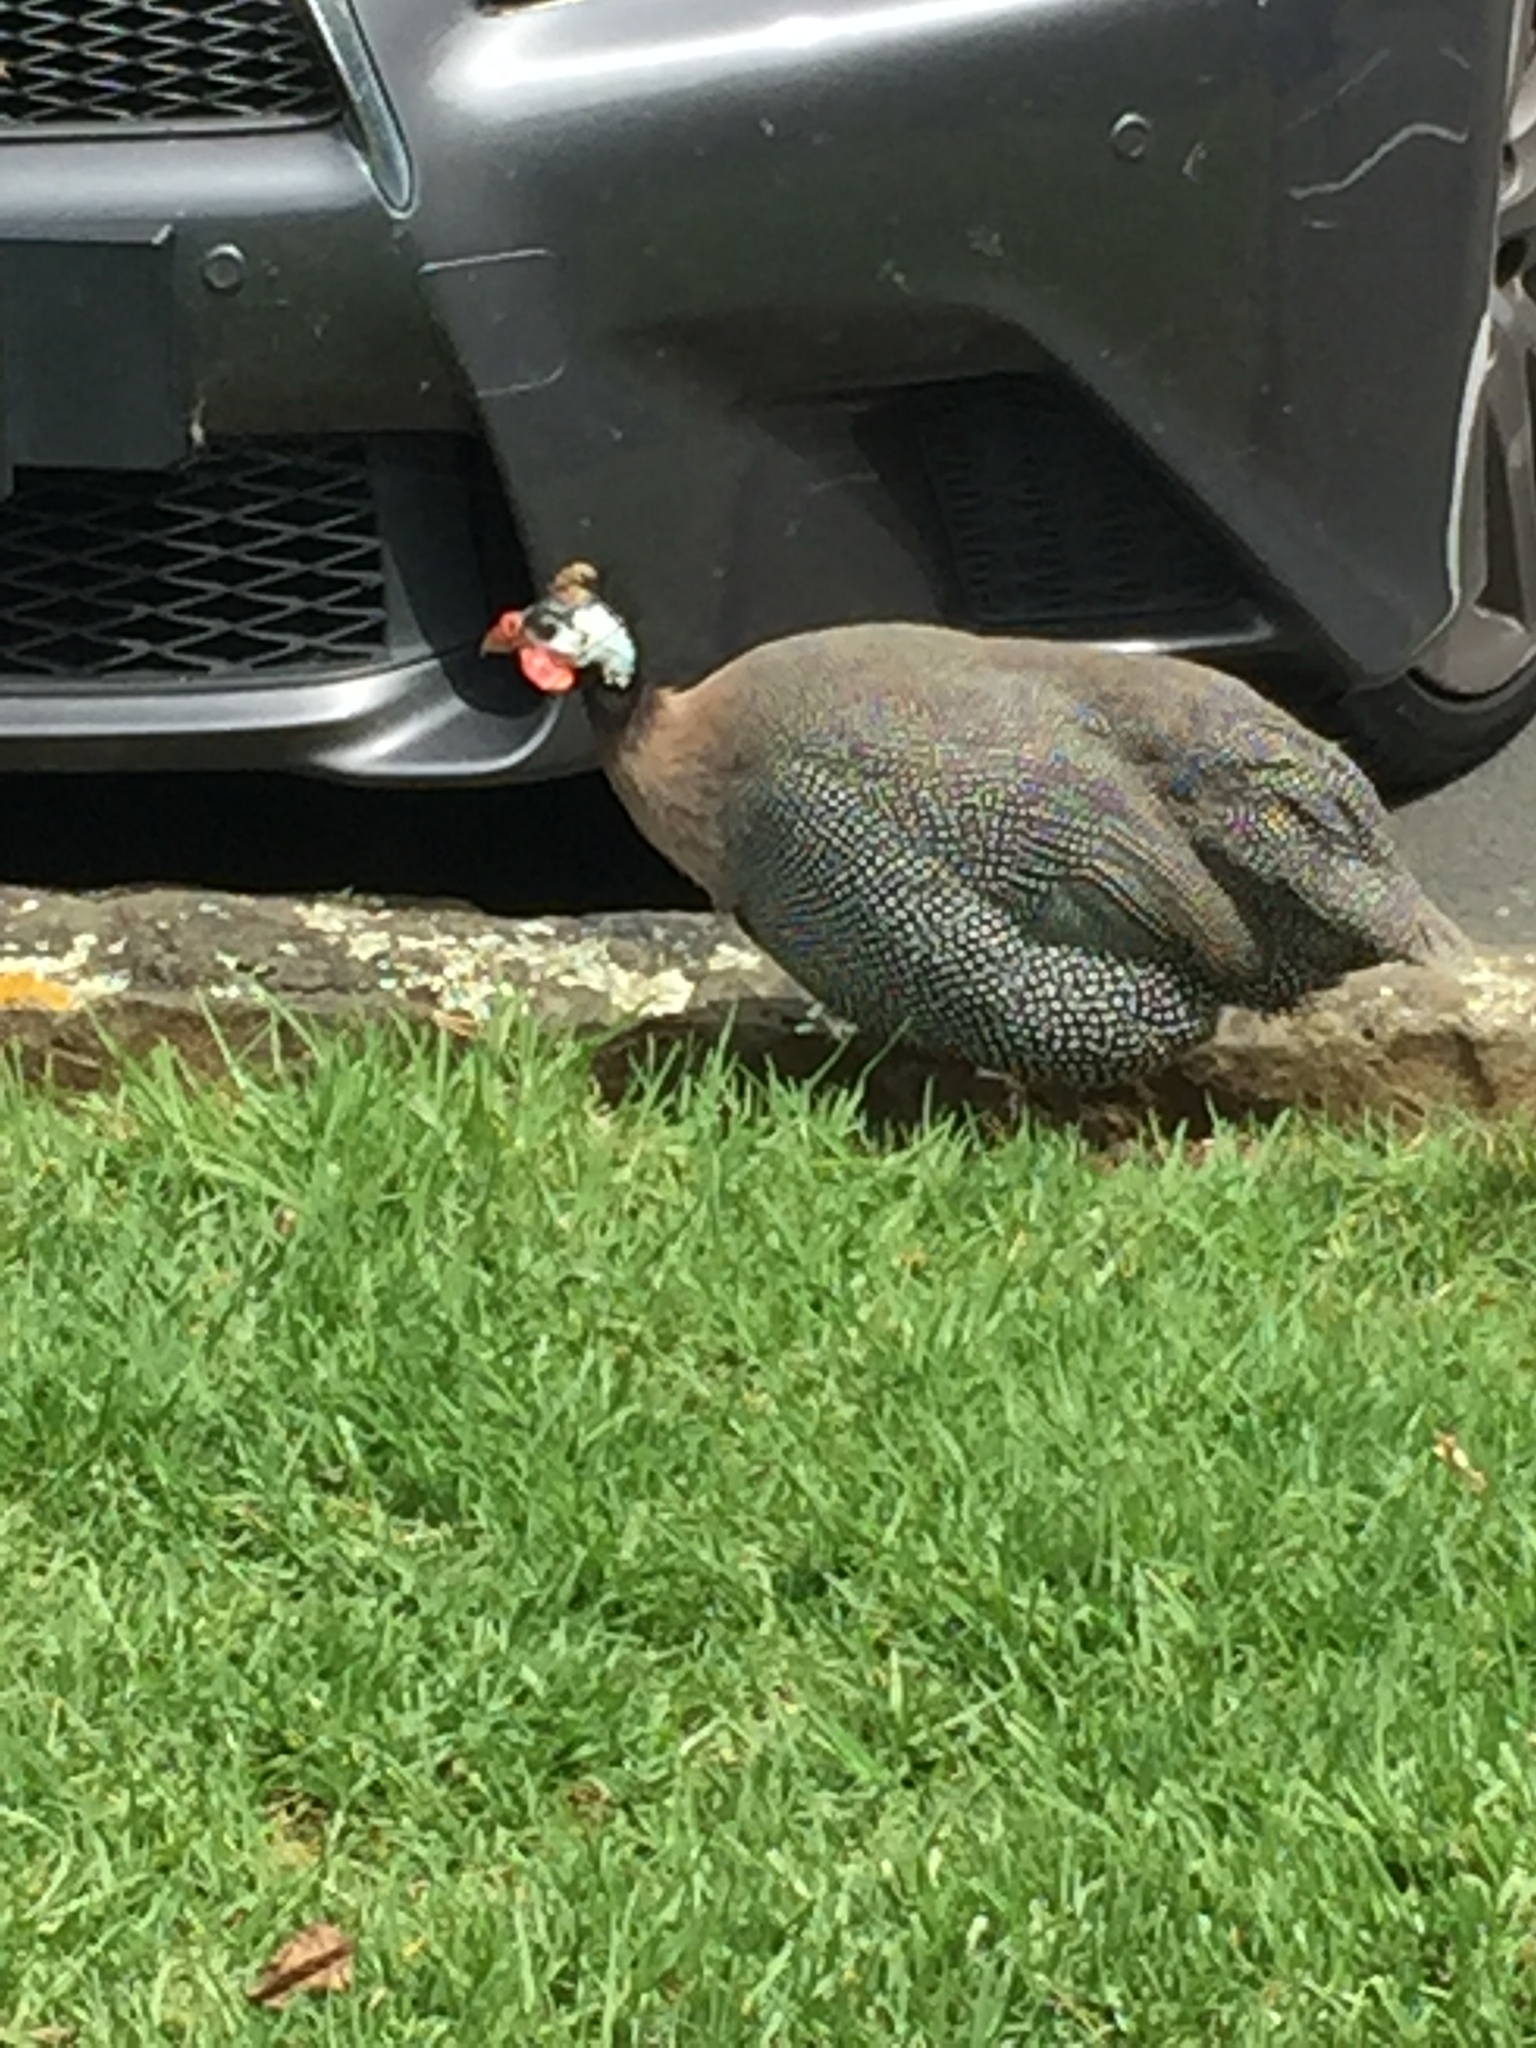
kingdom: Animalia
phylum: Chordata
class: Aves
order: Galliformes
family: Numididae
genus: Numida
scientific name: Numida meleagris
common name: Helmeted guineafowl
